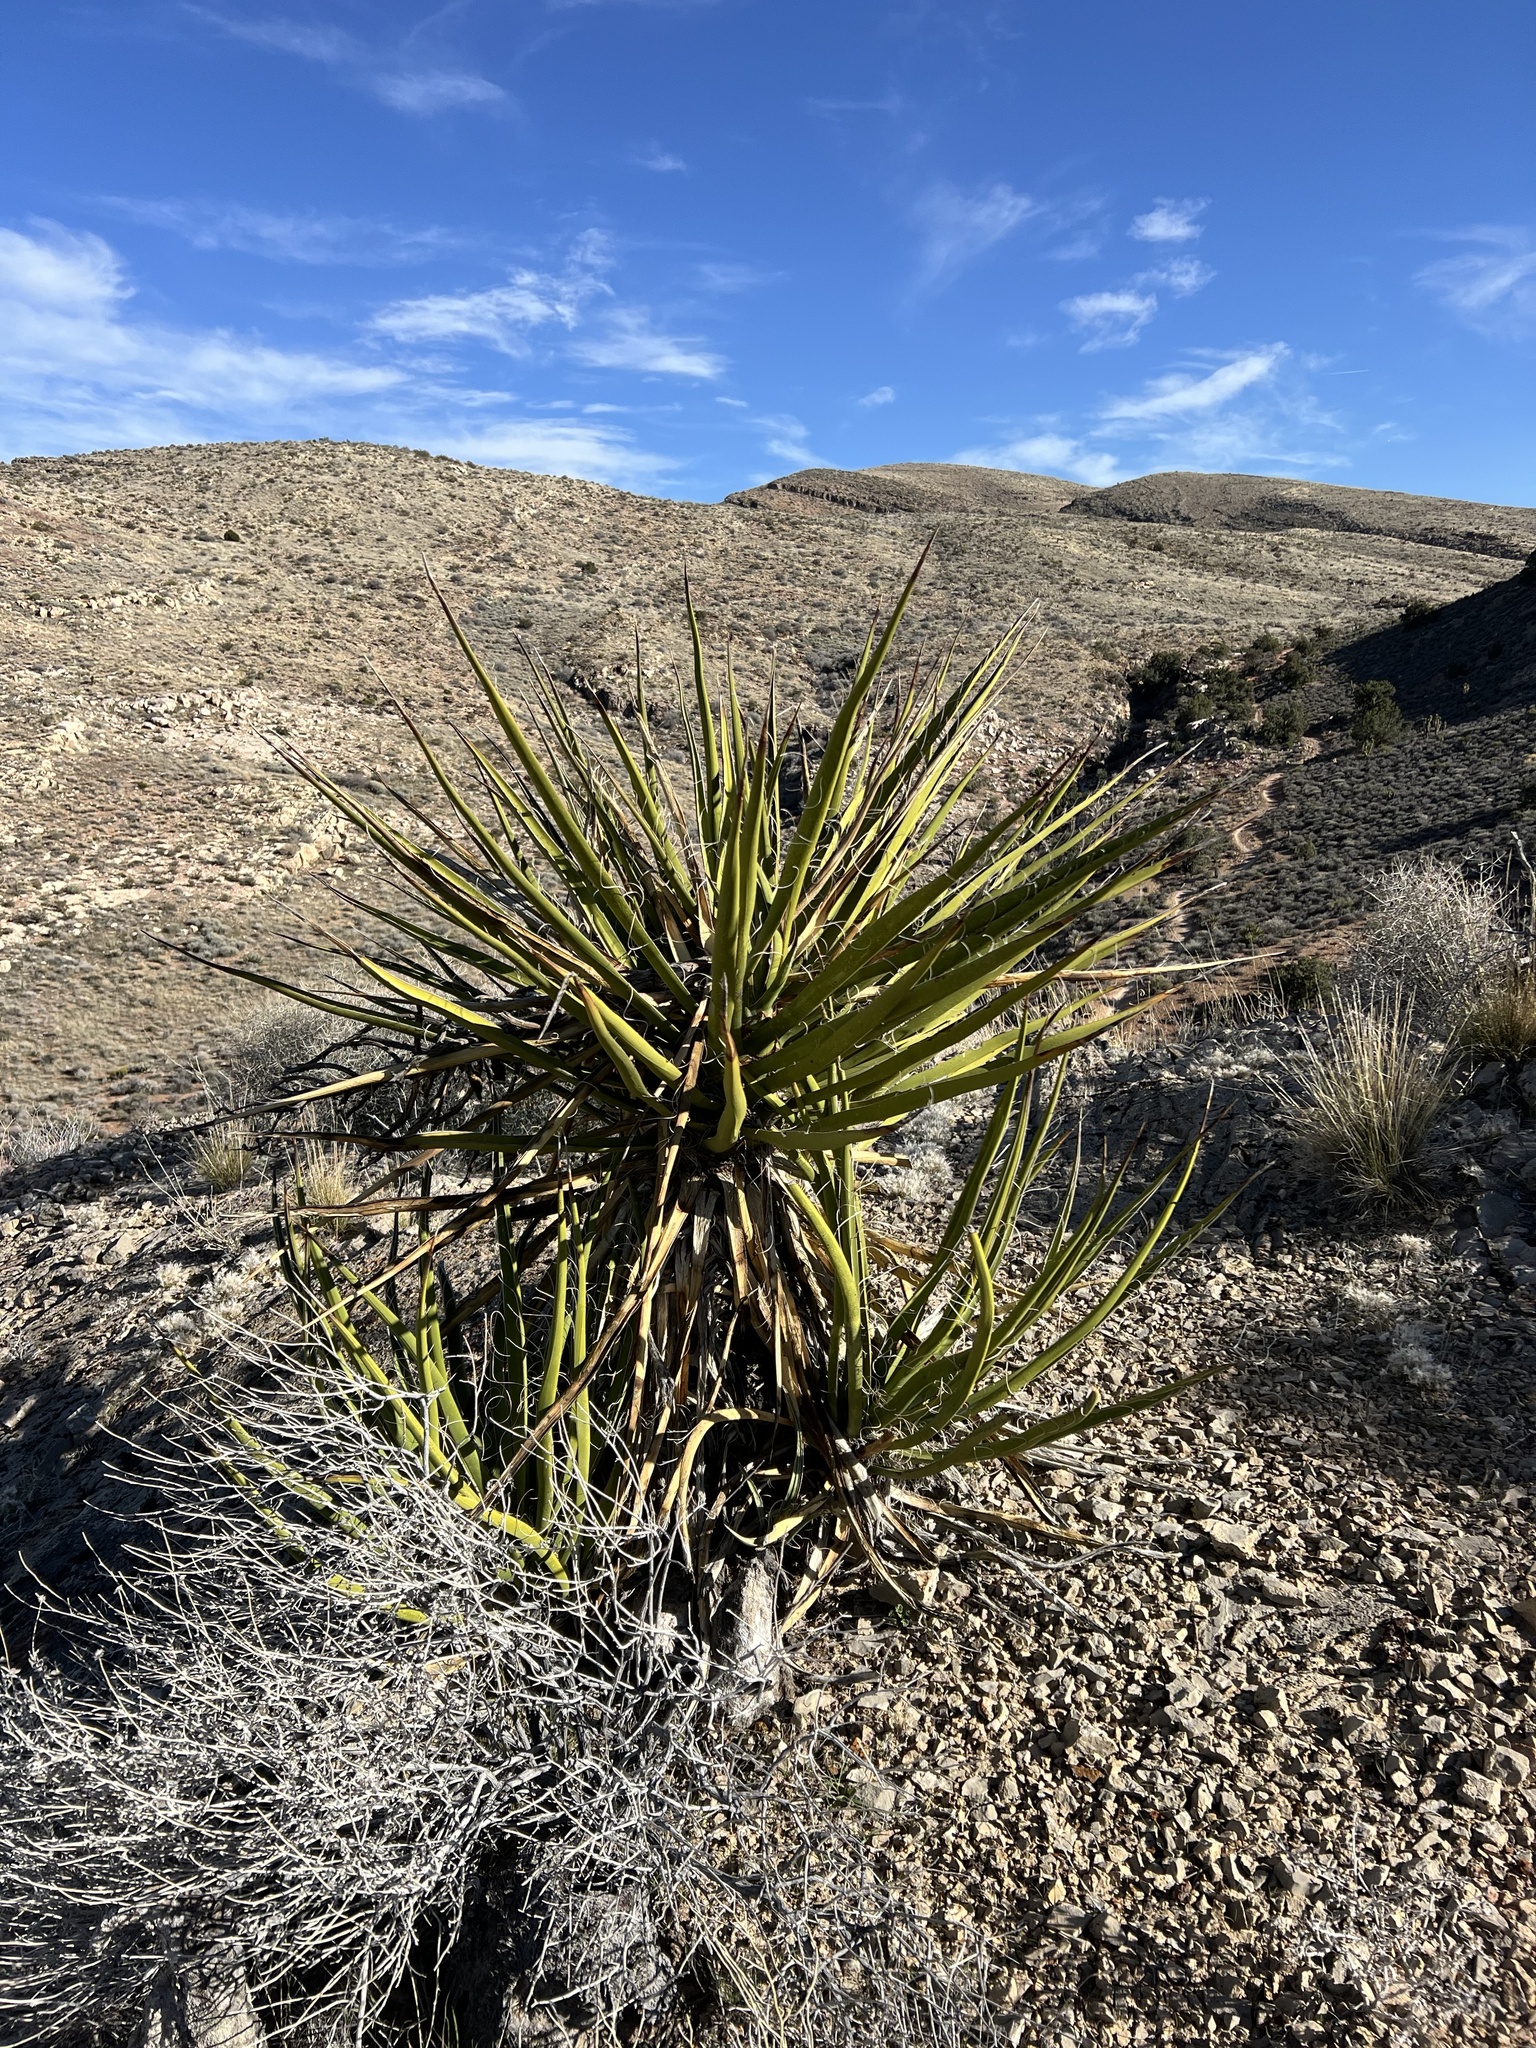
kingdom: Plantae
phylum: Tracheophyta
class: Liliopsida
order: Asparagales
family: Asparagaceae
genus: Yucca
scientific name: Yucca schidigera
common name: Mojave yucca
